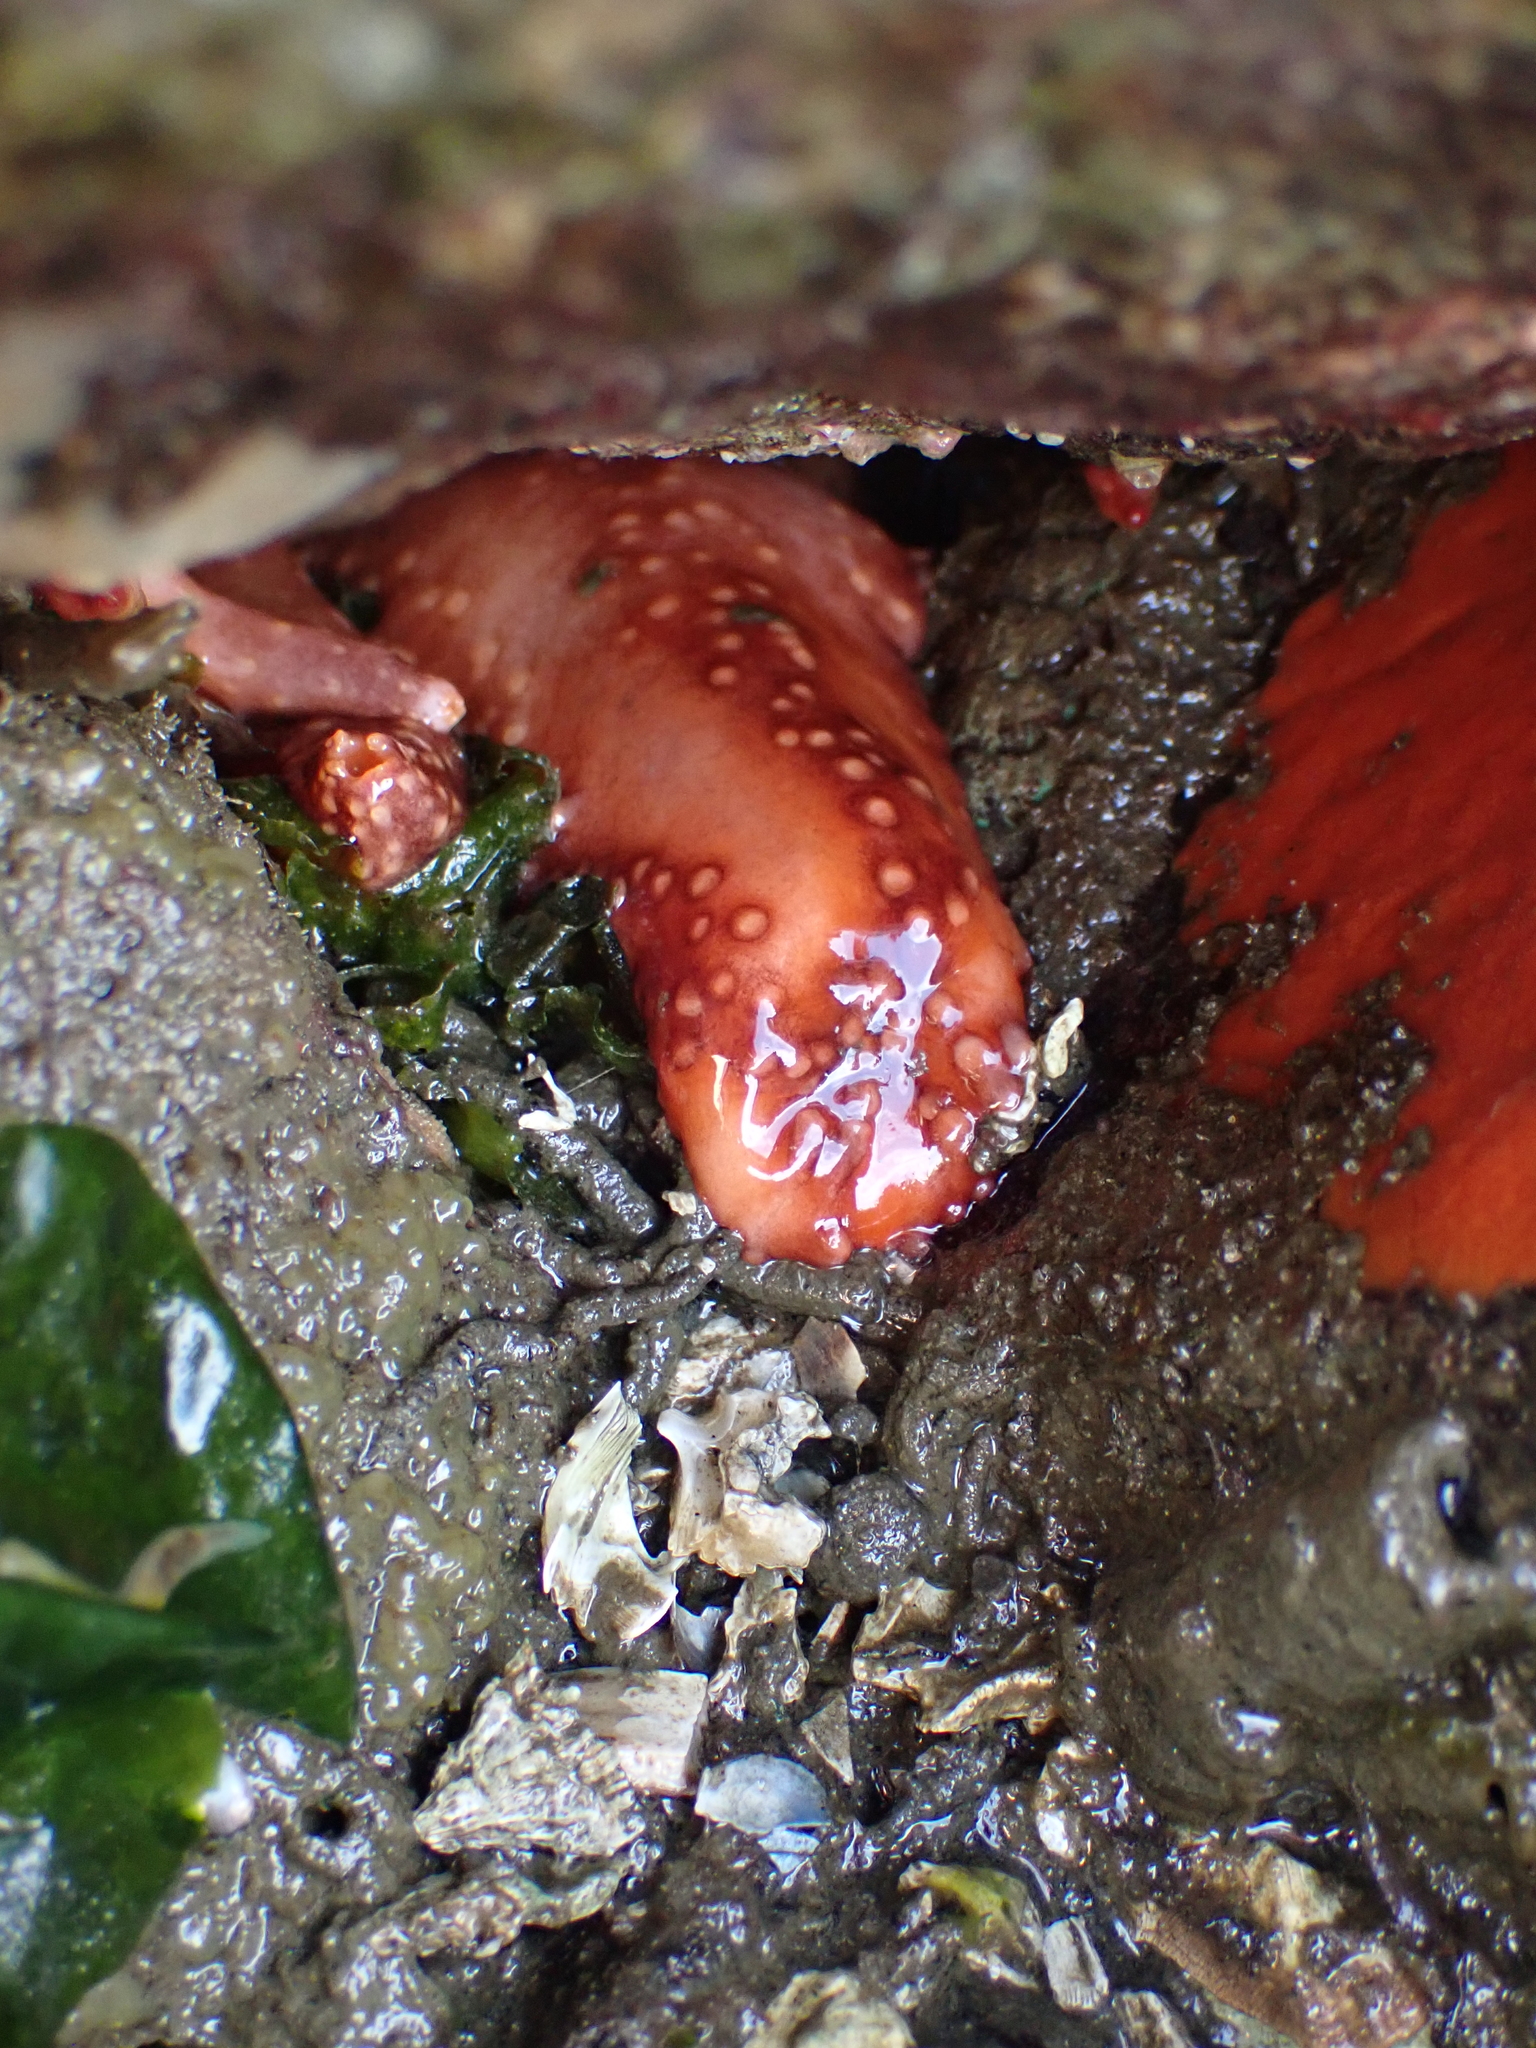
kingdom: Animalia
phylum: Echinodermata
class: Holothuroidea
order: Dendrochirotida
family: Cucumariidae
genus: Cucumaria
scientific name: Cucumaria miniata
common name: Orange sea cucumber
